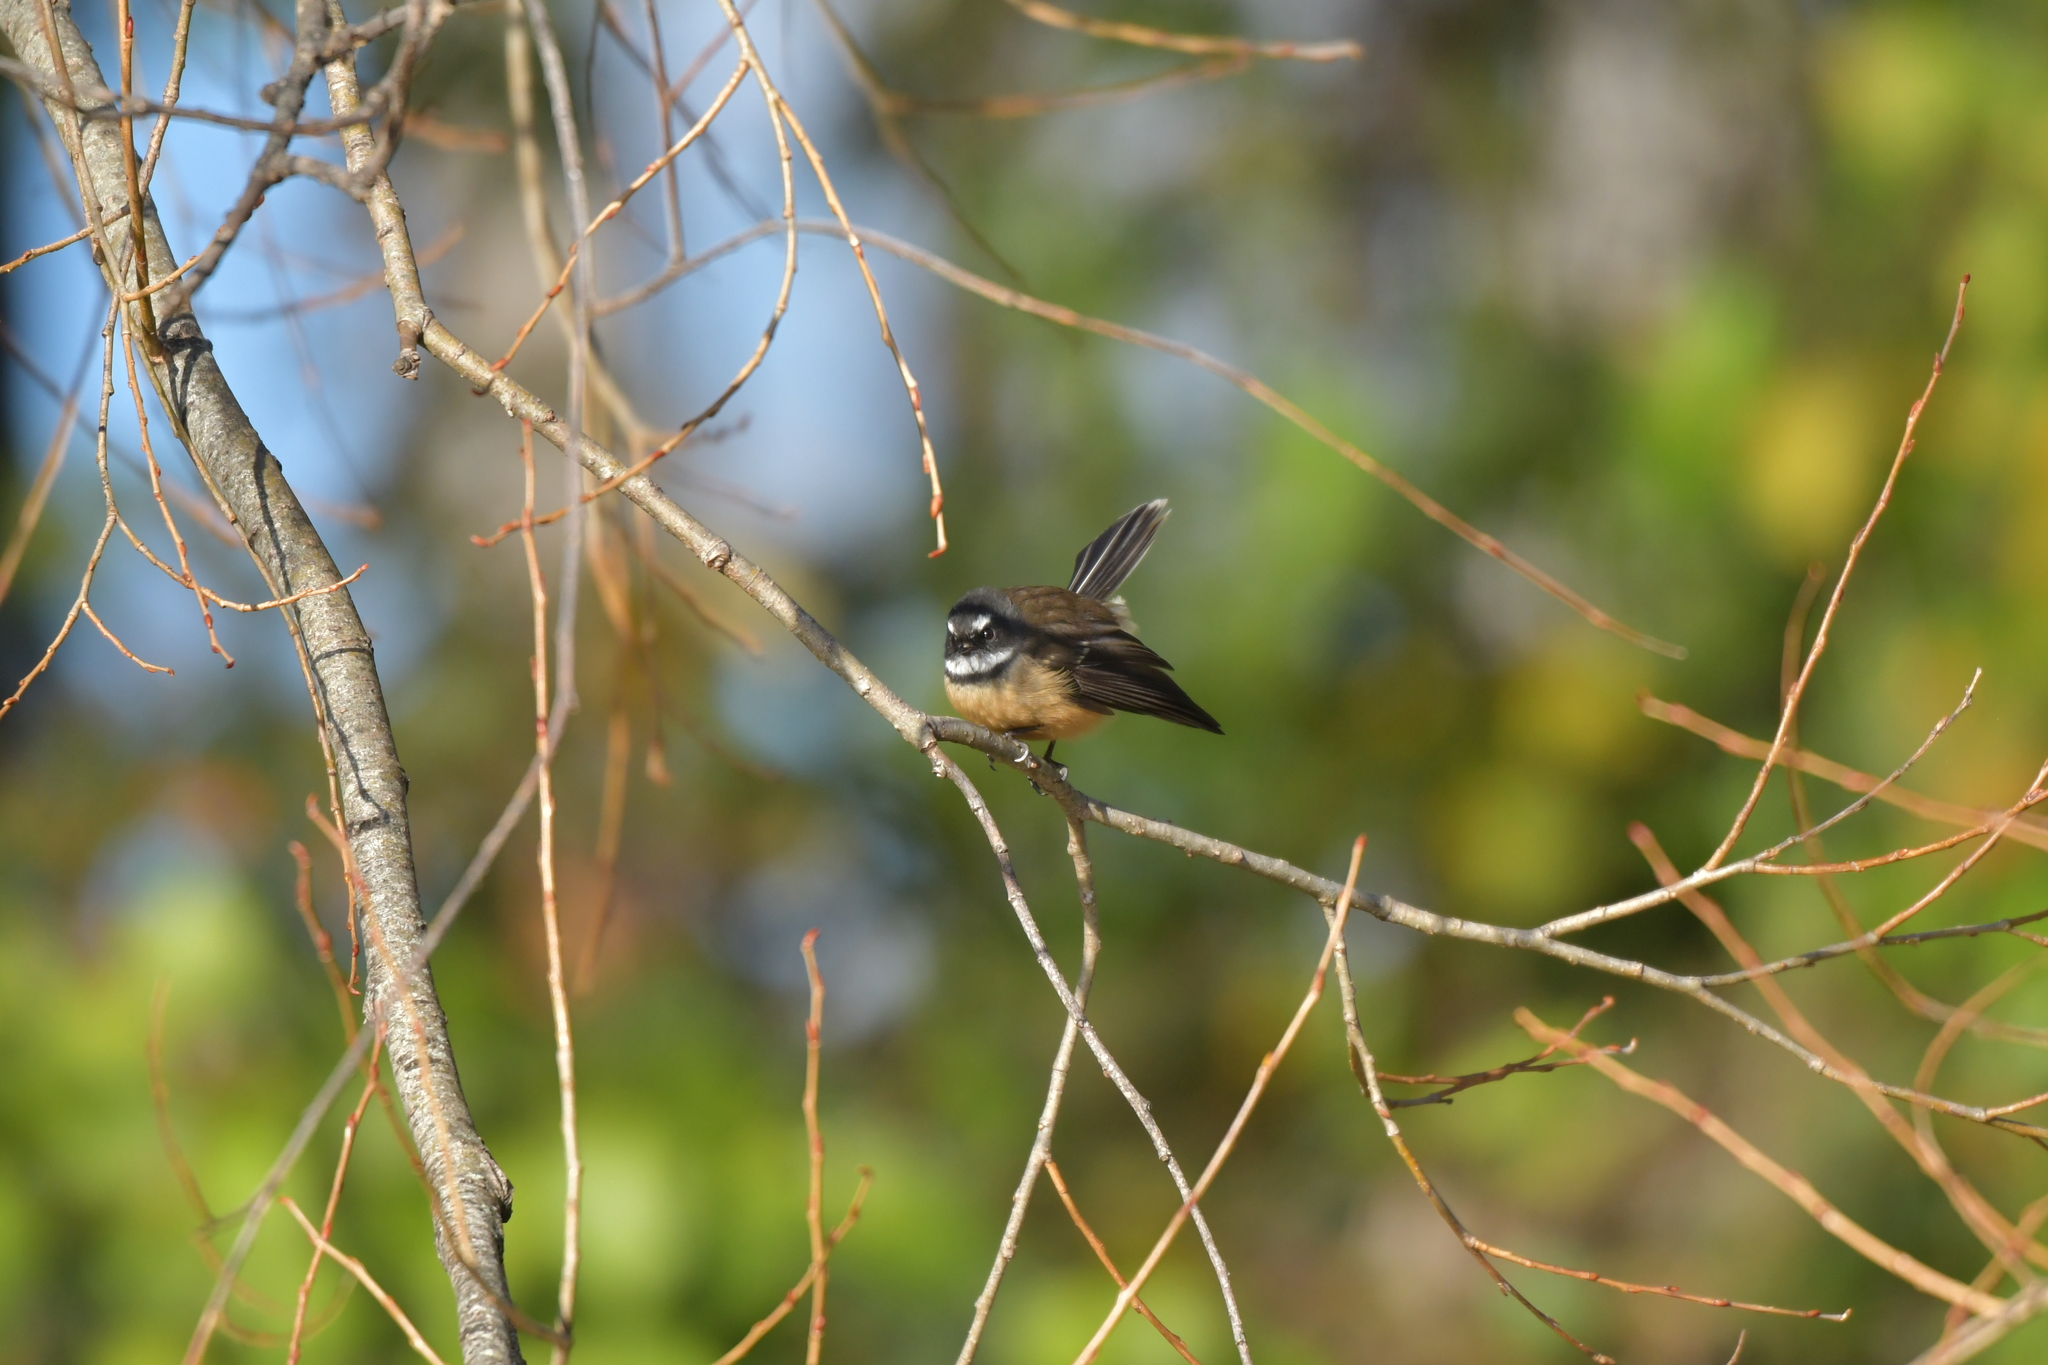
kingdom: Animalia
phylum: Chordata
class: Aves
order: Passeriformes
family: Rhipiduridae
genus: Rhipidura
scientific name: Rhipidura fuliginosa
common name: New zealand fantail
